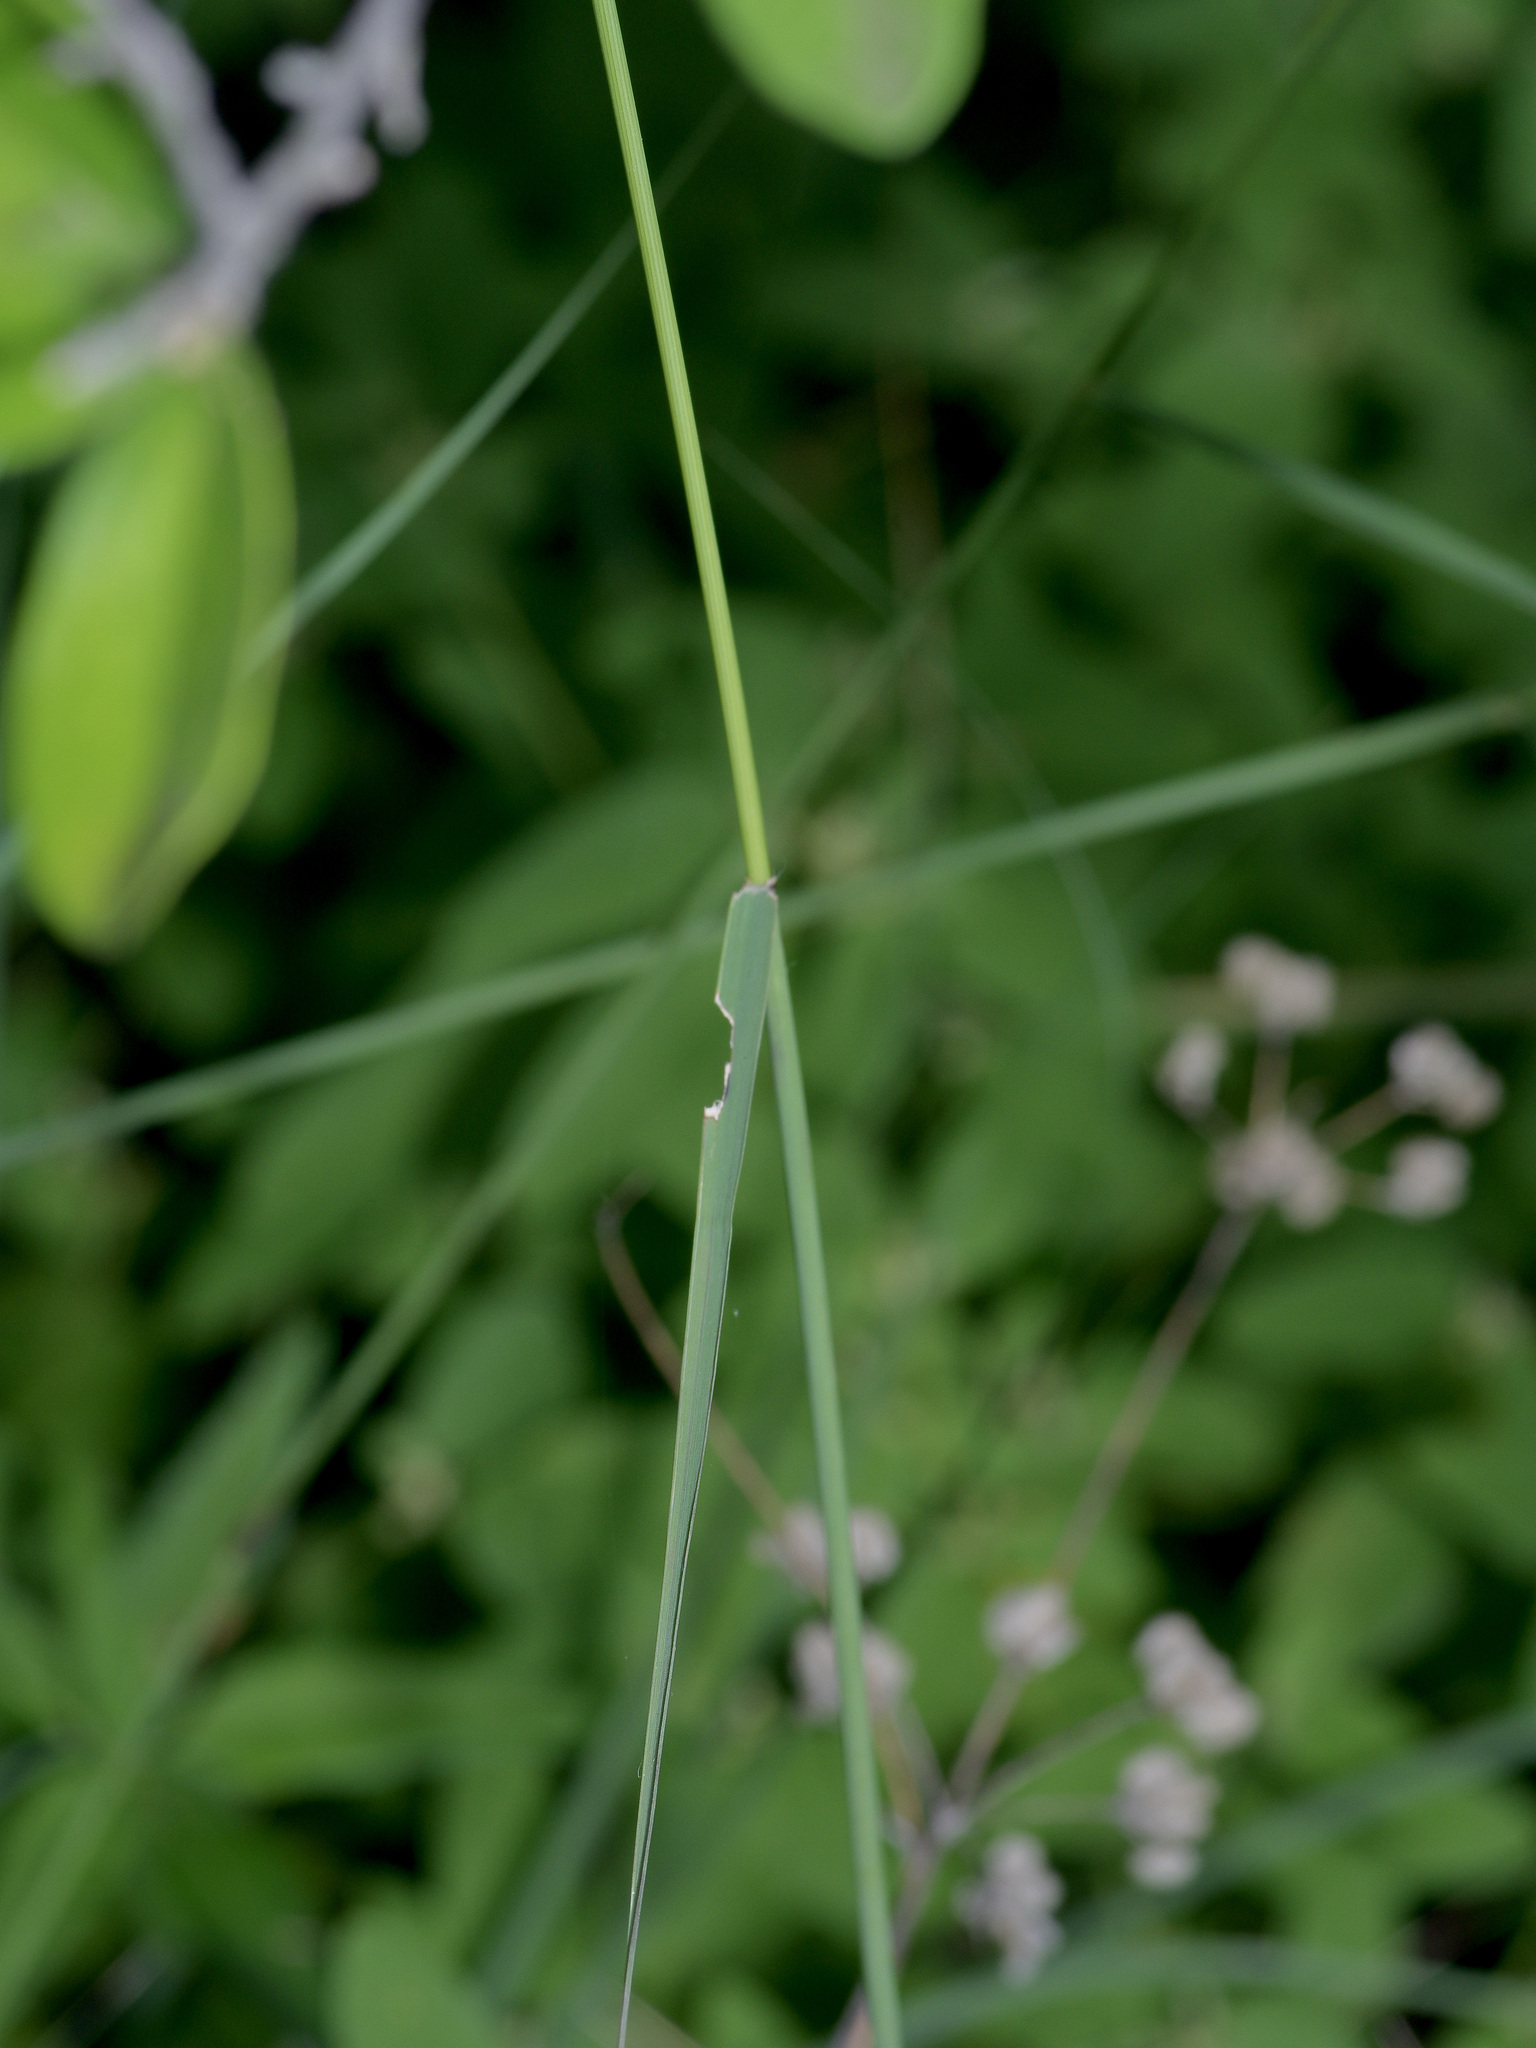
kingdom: Plantae
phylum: Tracheophyta
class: Liliopsida
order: Poales
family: Poaceae
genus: Bouteloua
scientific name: Bouteloua curtipendula
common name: Side-oats grama
